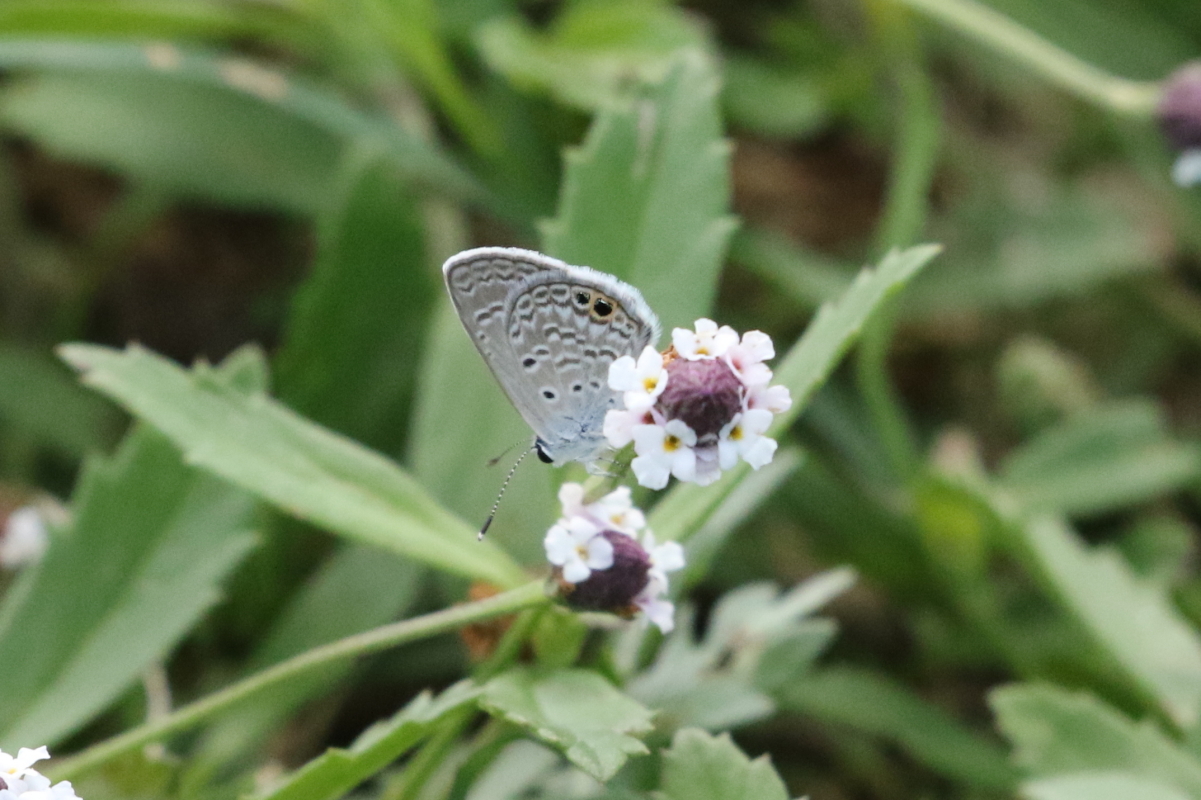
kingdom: Animalia
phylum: Arthropoda
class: Insecta
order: Lepidoptera
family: Lycaenidae
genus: Hemiargus
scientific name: Hemiargus ceraunus
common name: Ceraunus blue
